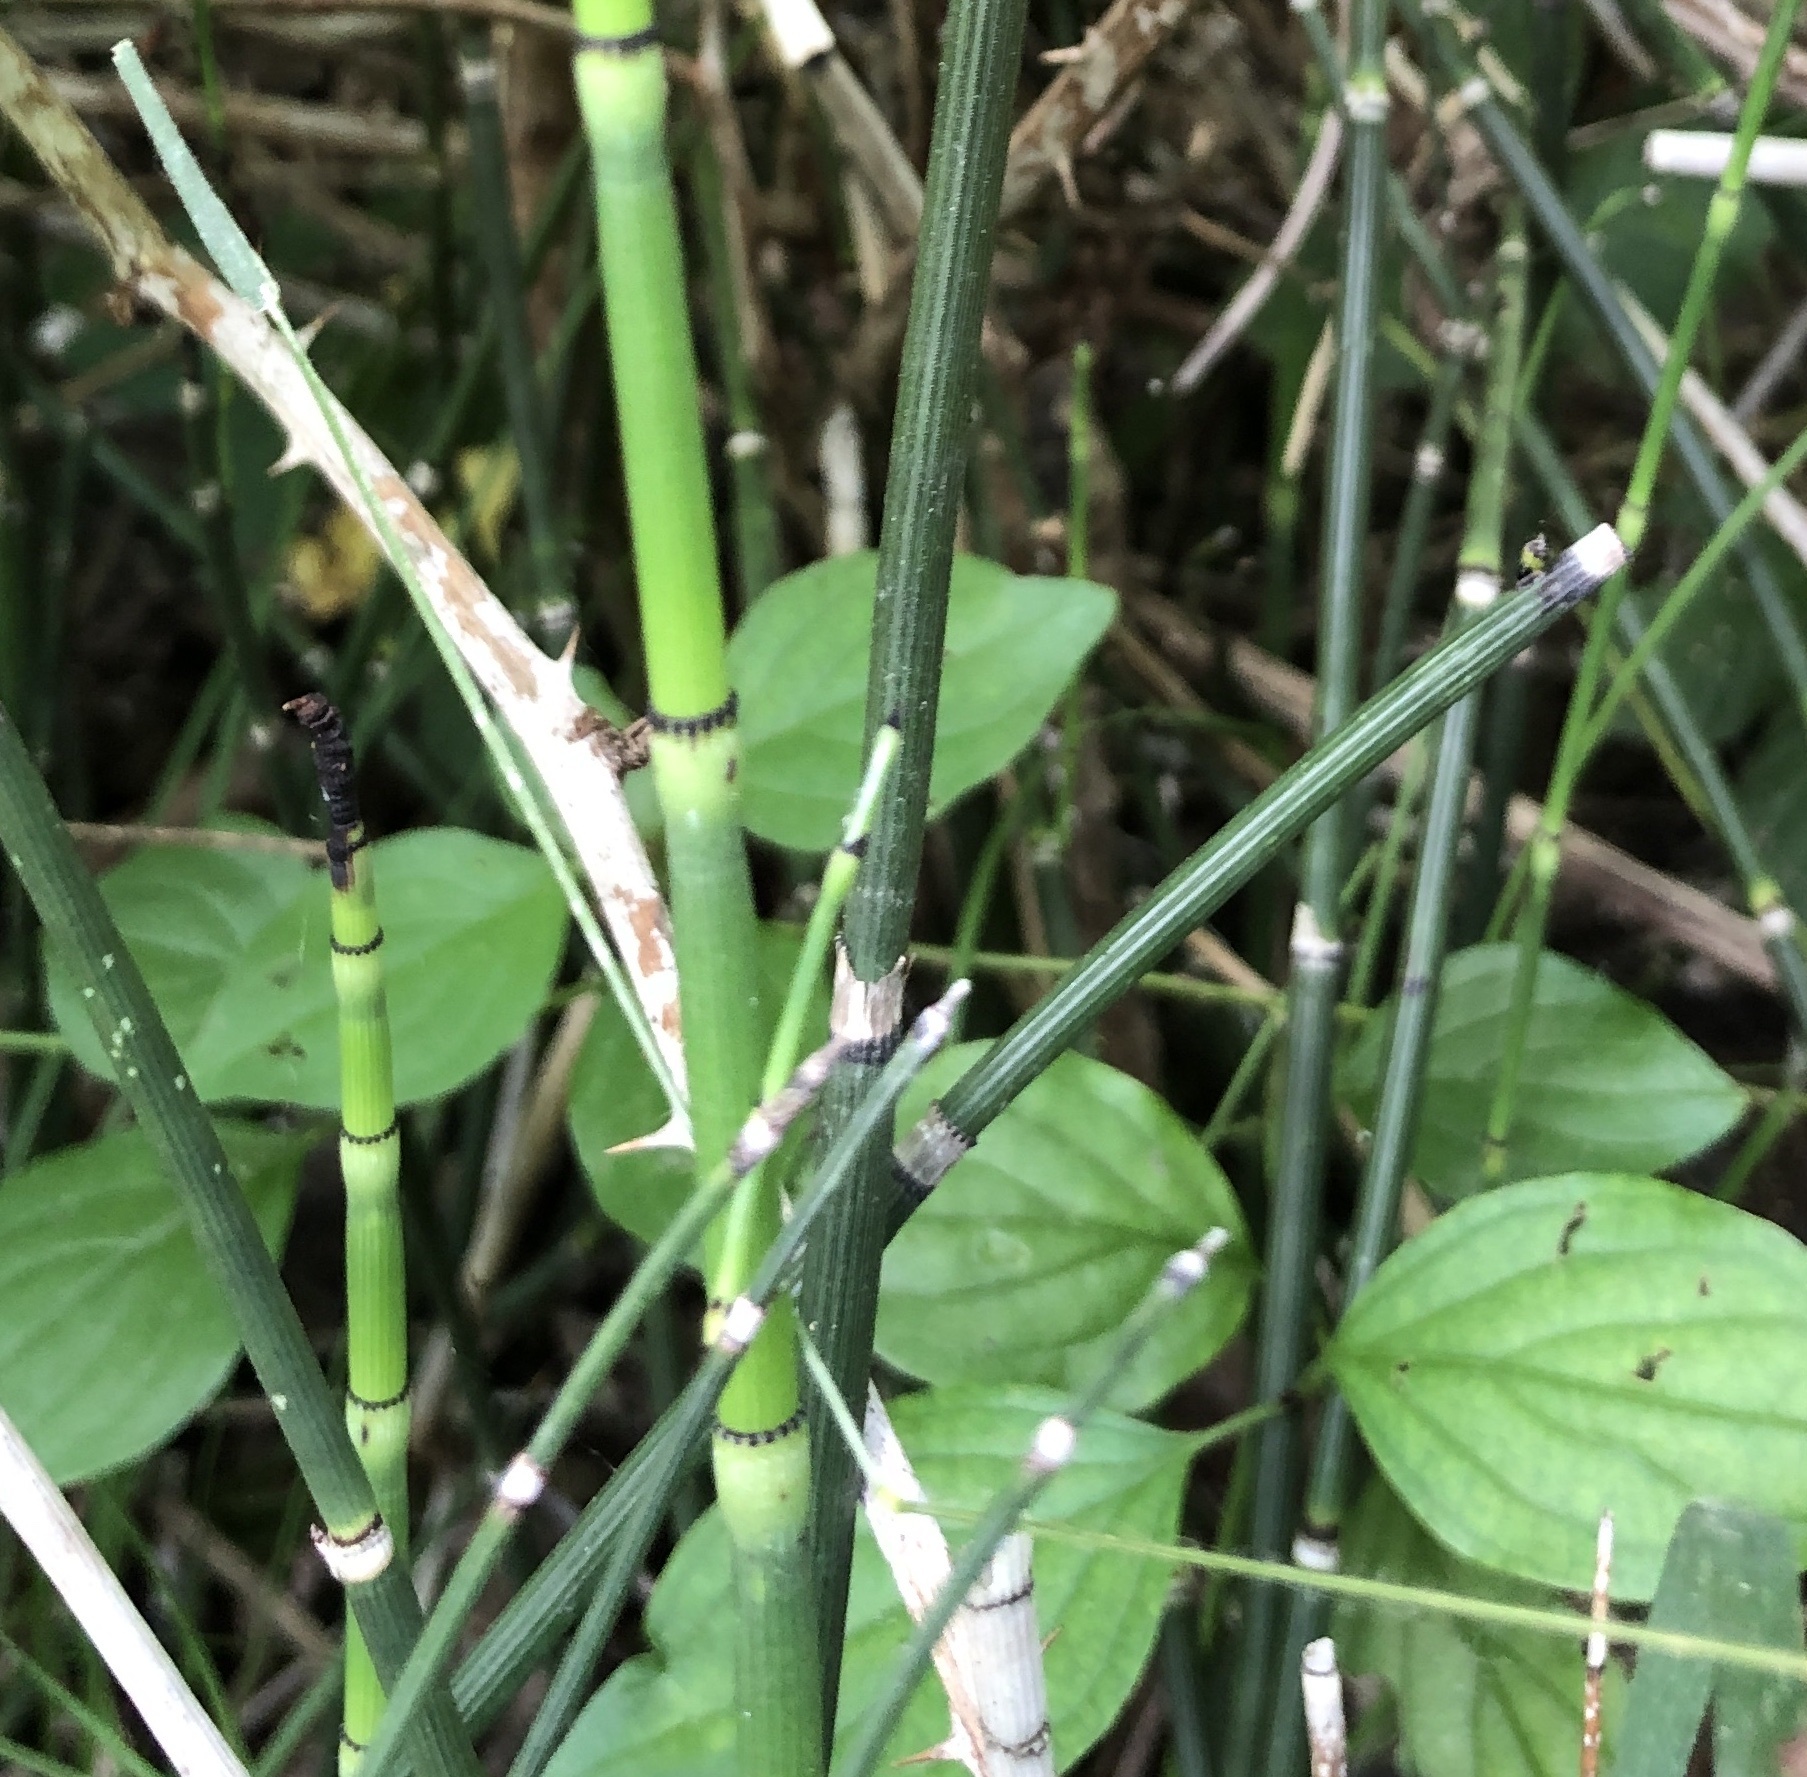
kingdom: Plantae
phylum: Tracheophyta
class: Polypodiopsida
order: Equisetales
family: Equisetaceae
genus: Equisetum
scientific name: Equisetum hyemale
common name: Rough horsetail
